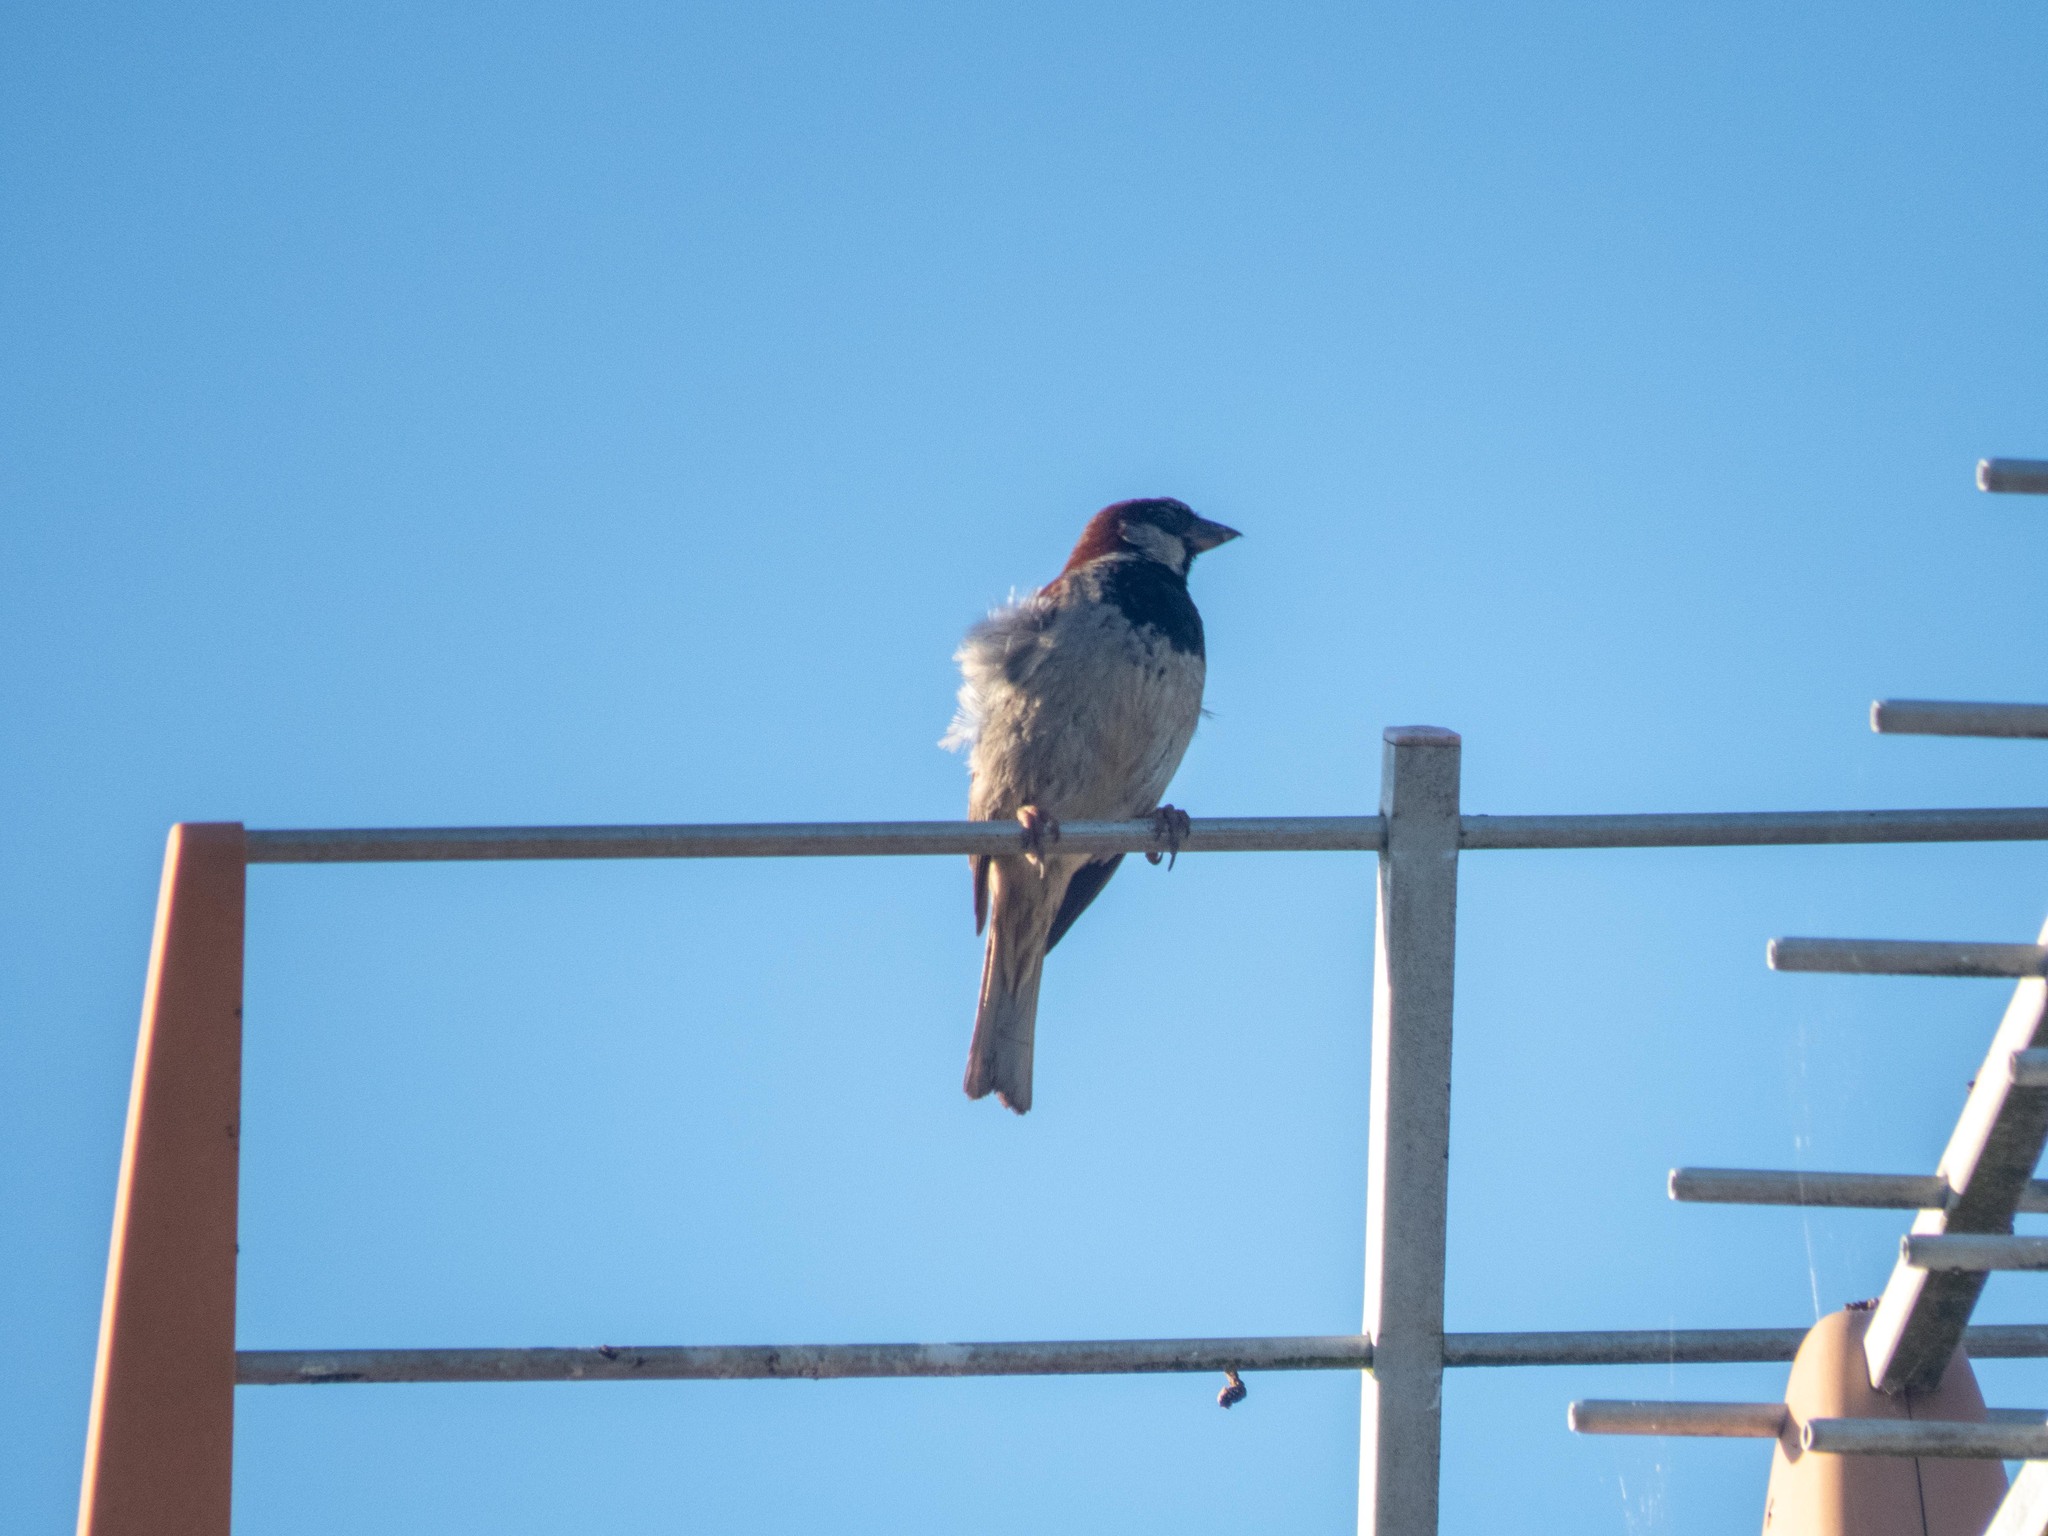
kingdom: Animalia
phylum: Chordata
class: Aves
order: Passeriformes
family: Passeridae
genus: Passer
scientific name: Passer domesticus
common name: House sparrow
